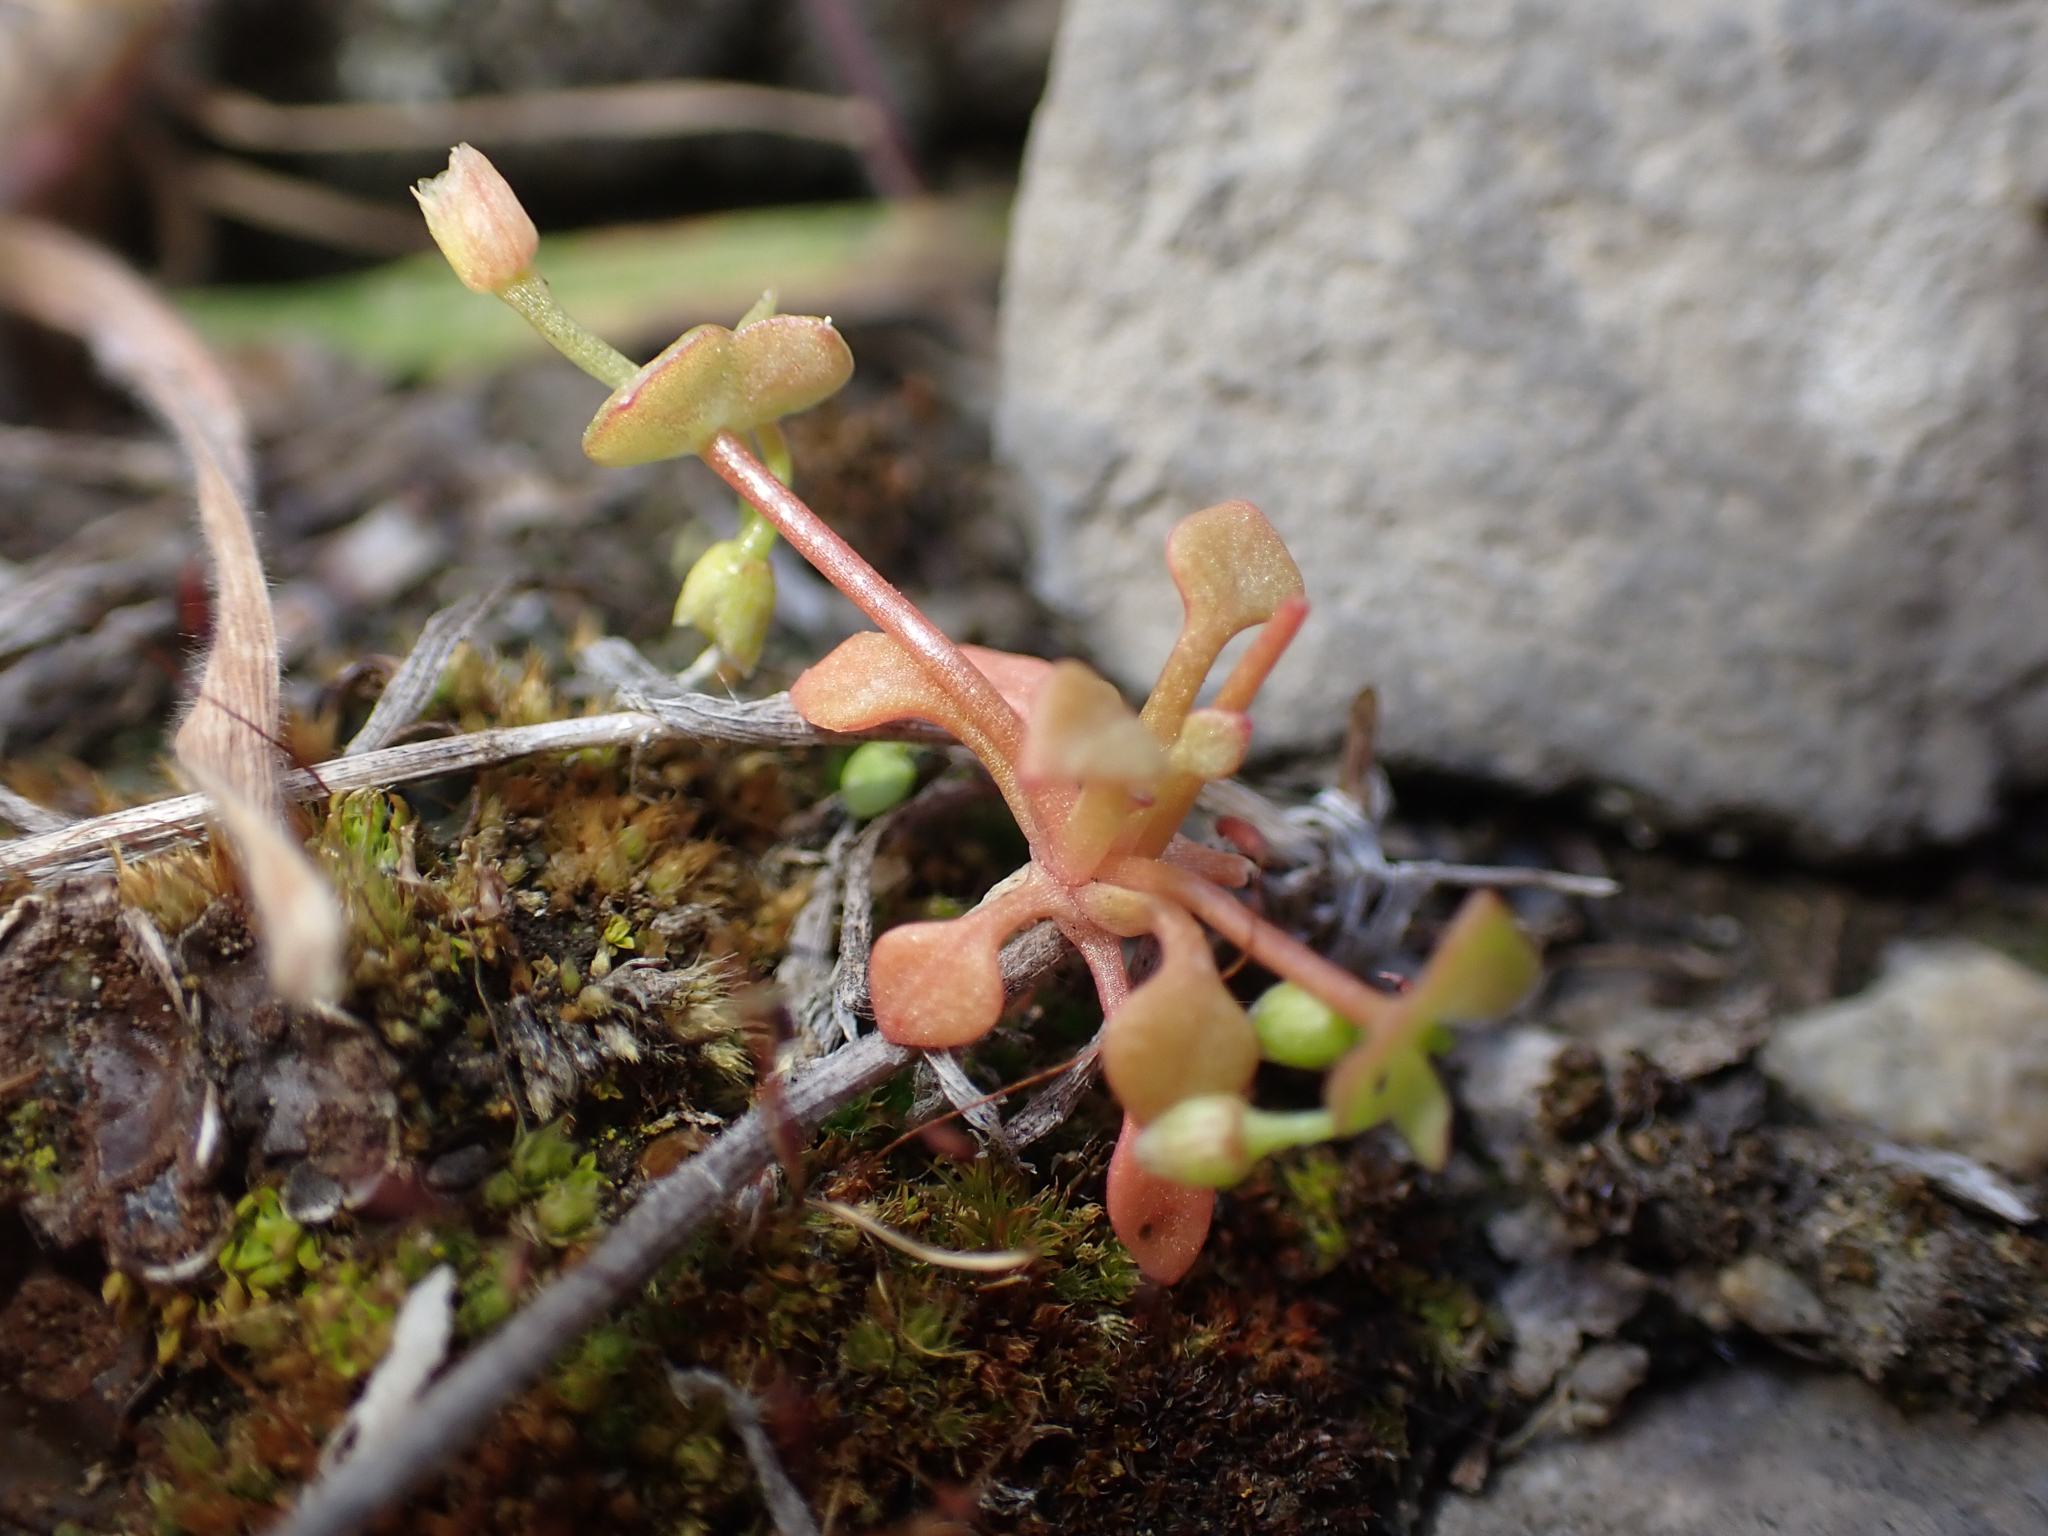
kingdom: Plantae
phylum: Tracheophyta
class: Magnoliopsida
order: Caryophyllales
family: Montiaceae
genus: Claytonia
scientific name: Claytonia rubra
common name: Erubescent miner's-lettuce
